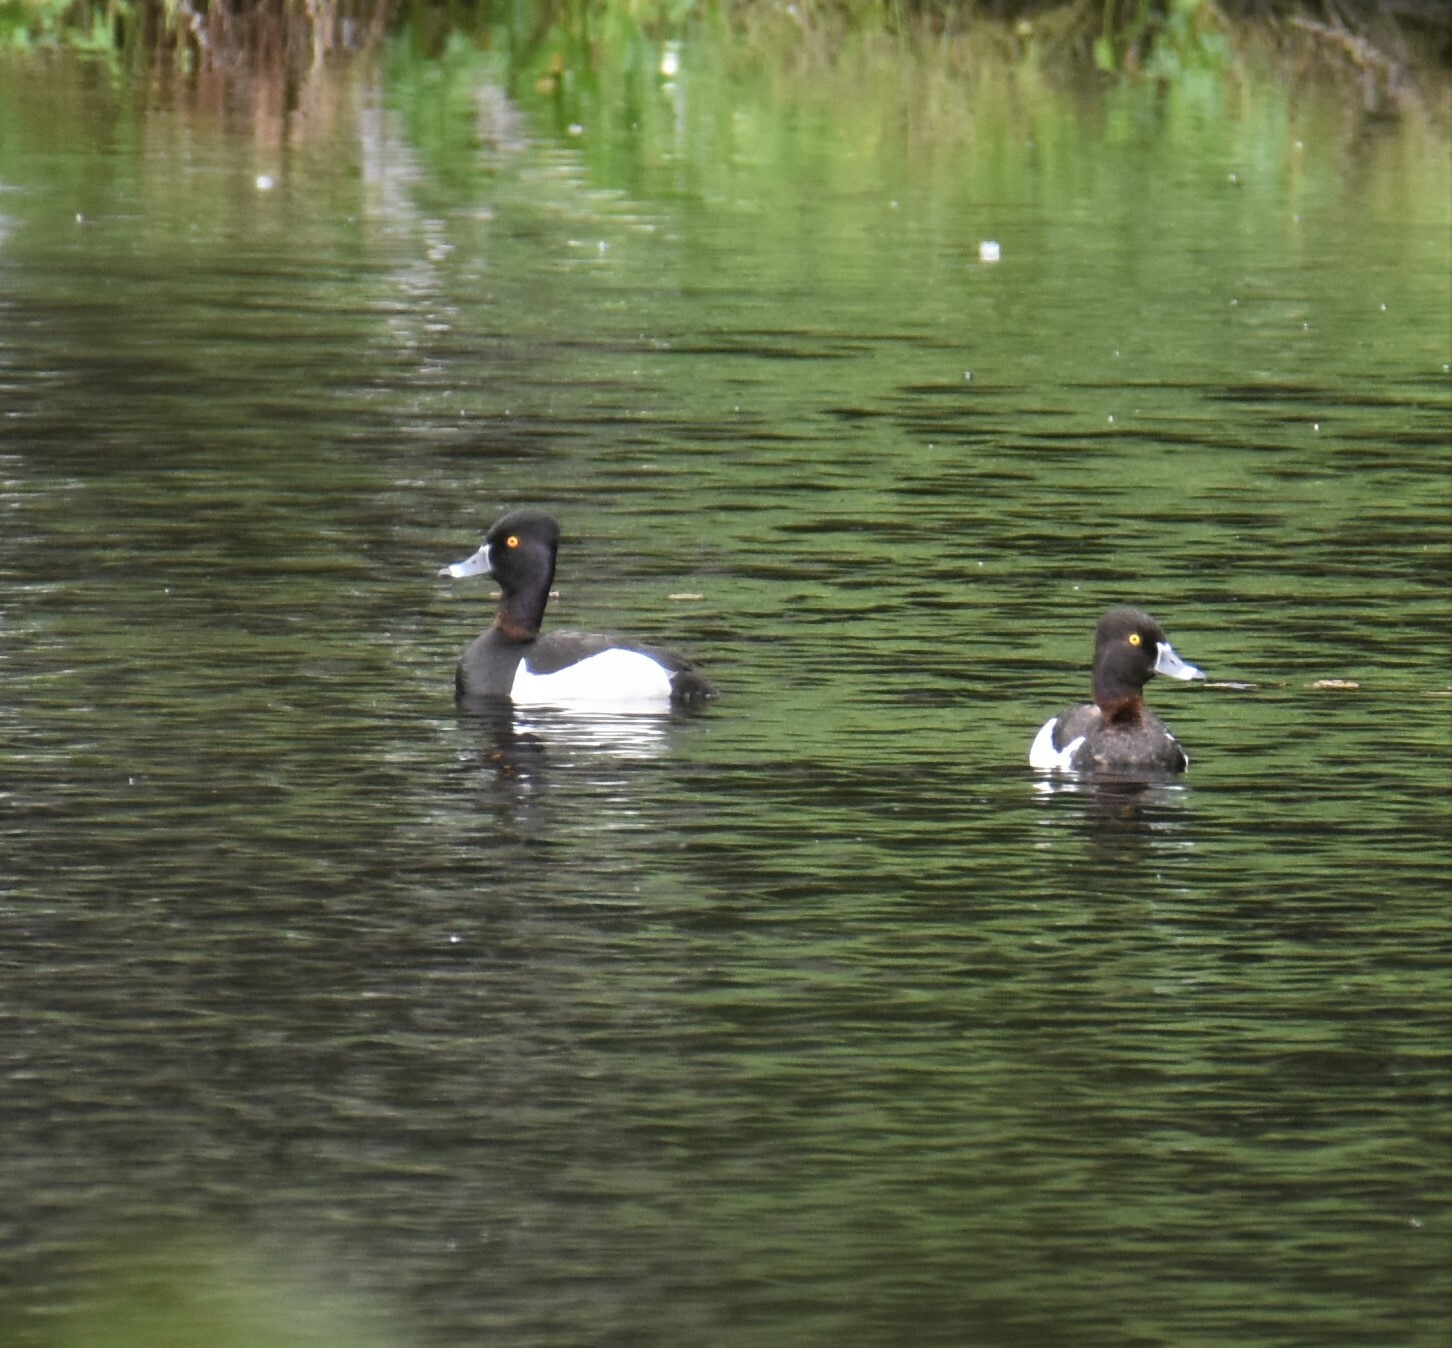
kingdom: Animalia
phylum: Chordata
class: Aves
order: Anseriformes
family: Anatidae
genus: Aythya
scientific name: Aythya collaris
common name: Ring-necked duck
